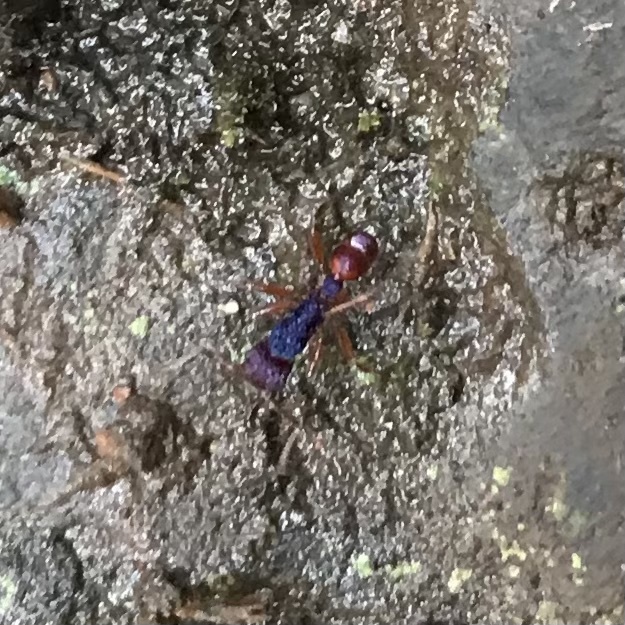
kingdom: Animalia
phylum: Arthropoda
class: Insecta
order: Hymenoptera
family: Formicidae
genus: Rhytidoponera
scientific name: Rhytidoponera croesus
